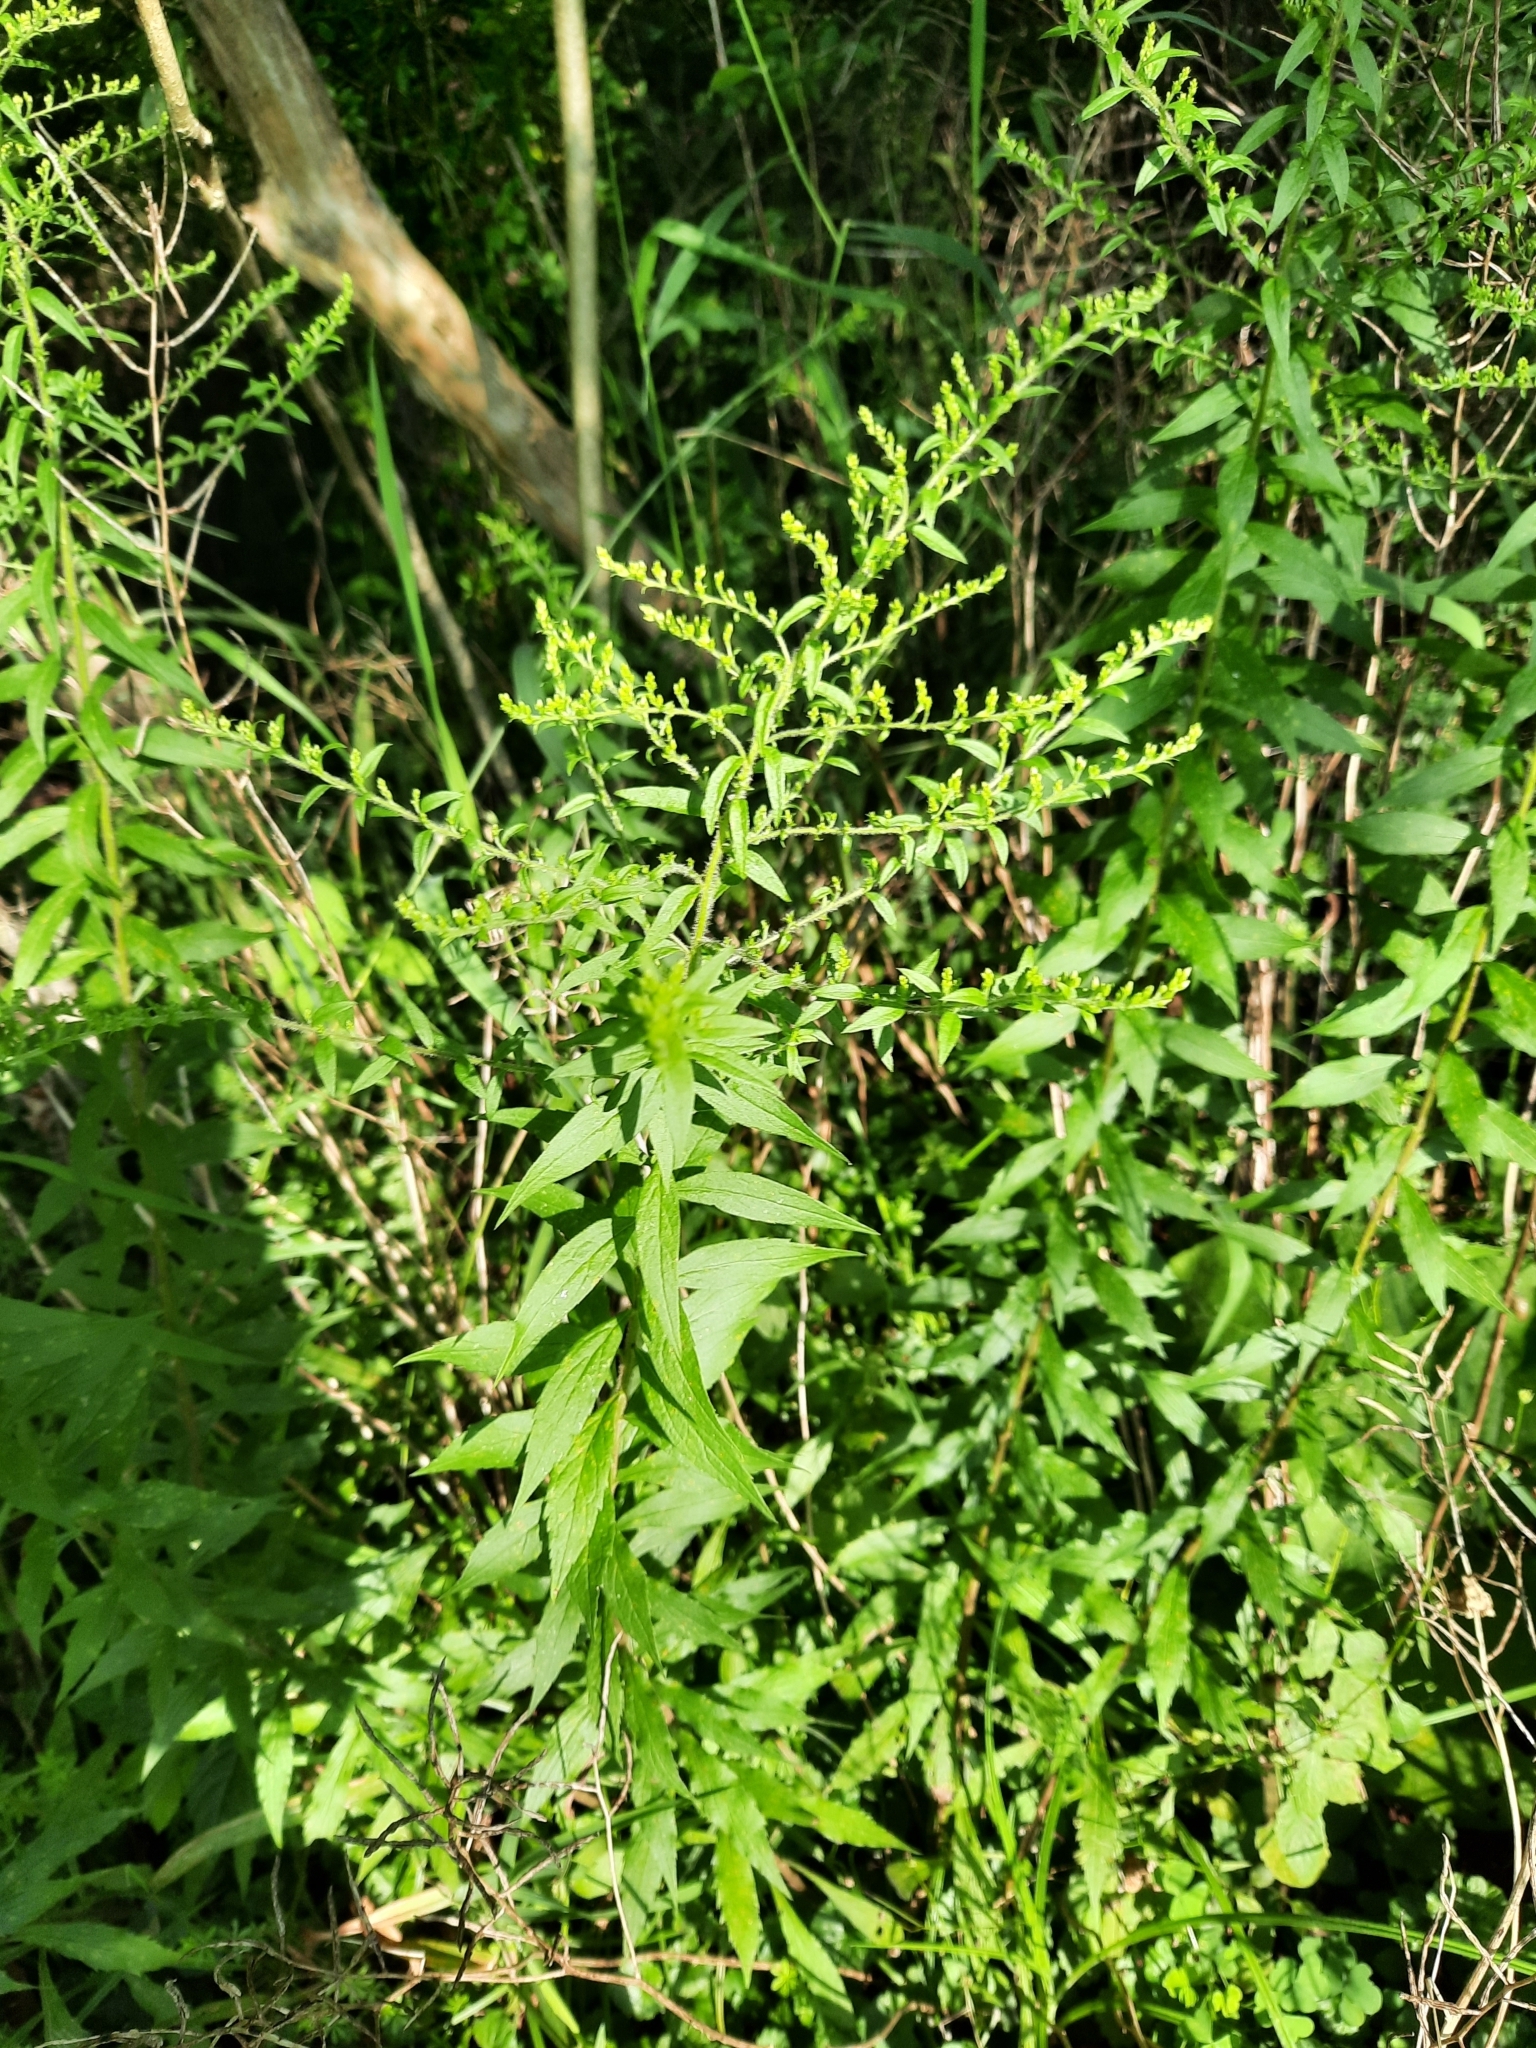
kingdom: Plantae
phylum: Tracheophyta
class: Magnoliopsida
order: Asterales
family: Asteraceae
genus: Solidago
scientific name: Solidago rugosa
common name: Rough-stemmed goldenrod
